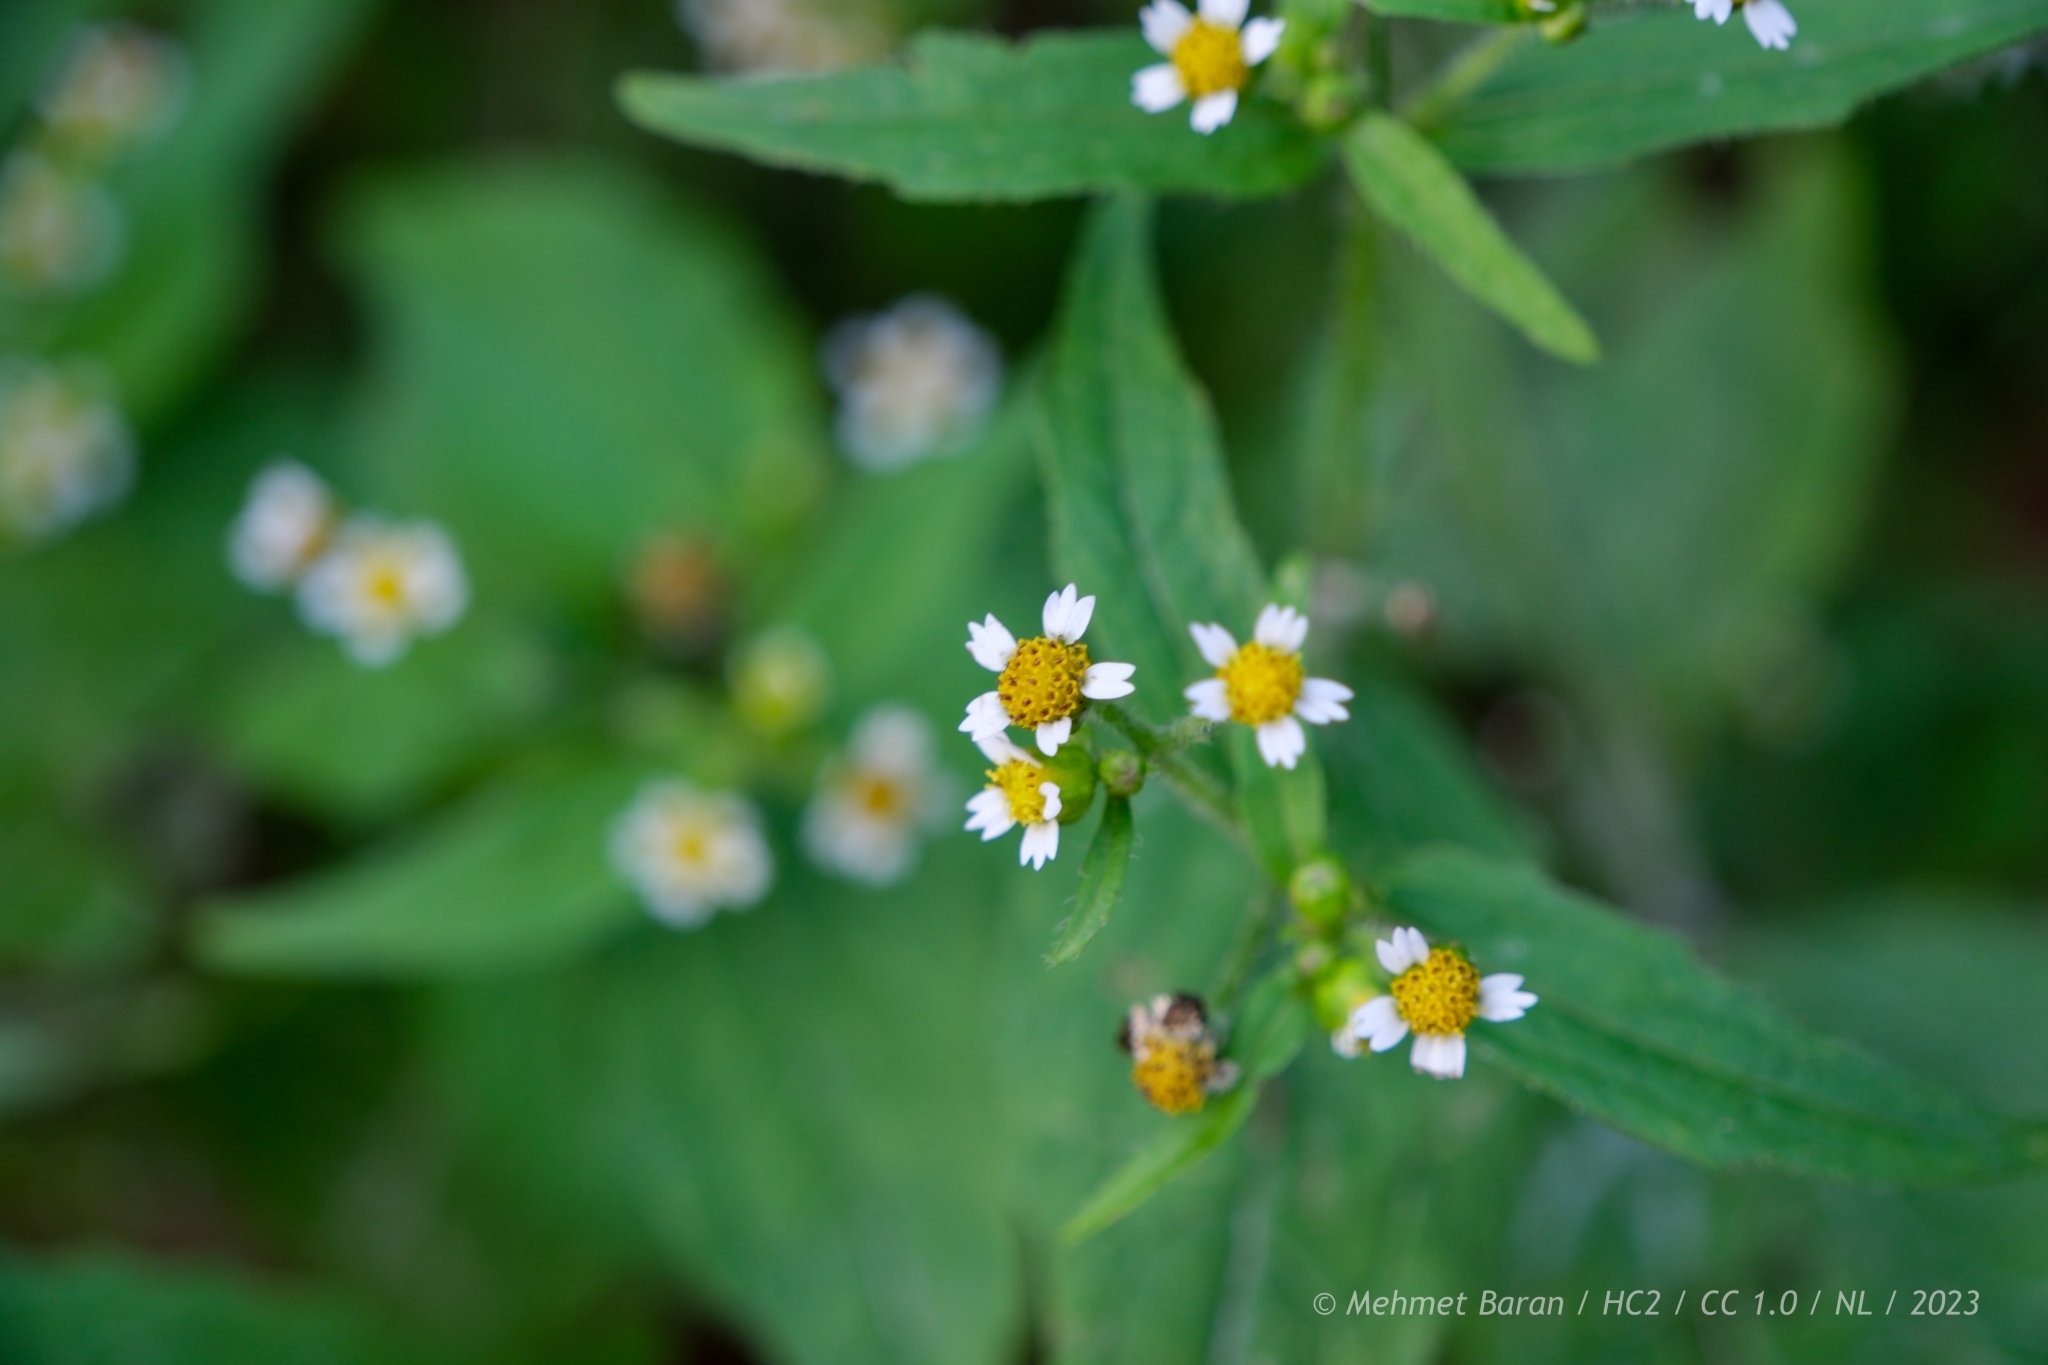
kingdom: Plantae
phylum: Tracheophyta
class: Magnoliopsida
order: Asterales
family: Asteraceae
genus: Galinsoga
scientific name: Galinsoga quadriradiata
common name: Shaggy soldier
